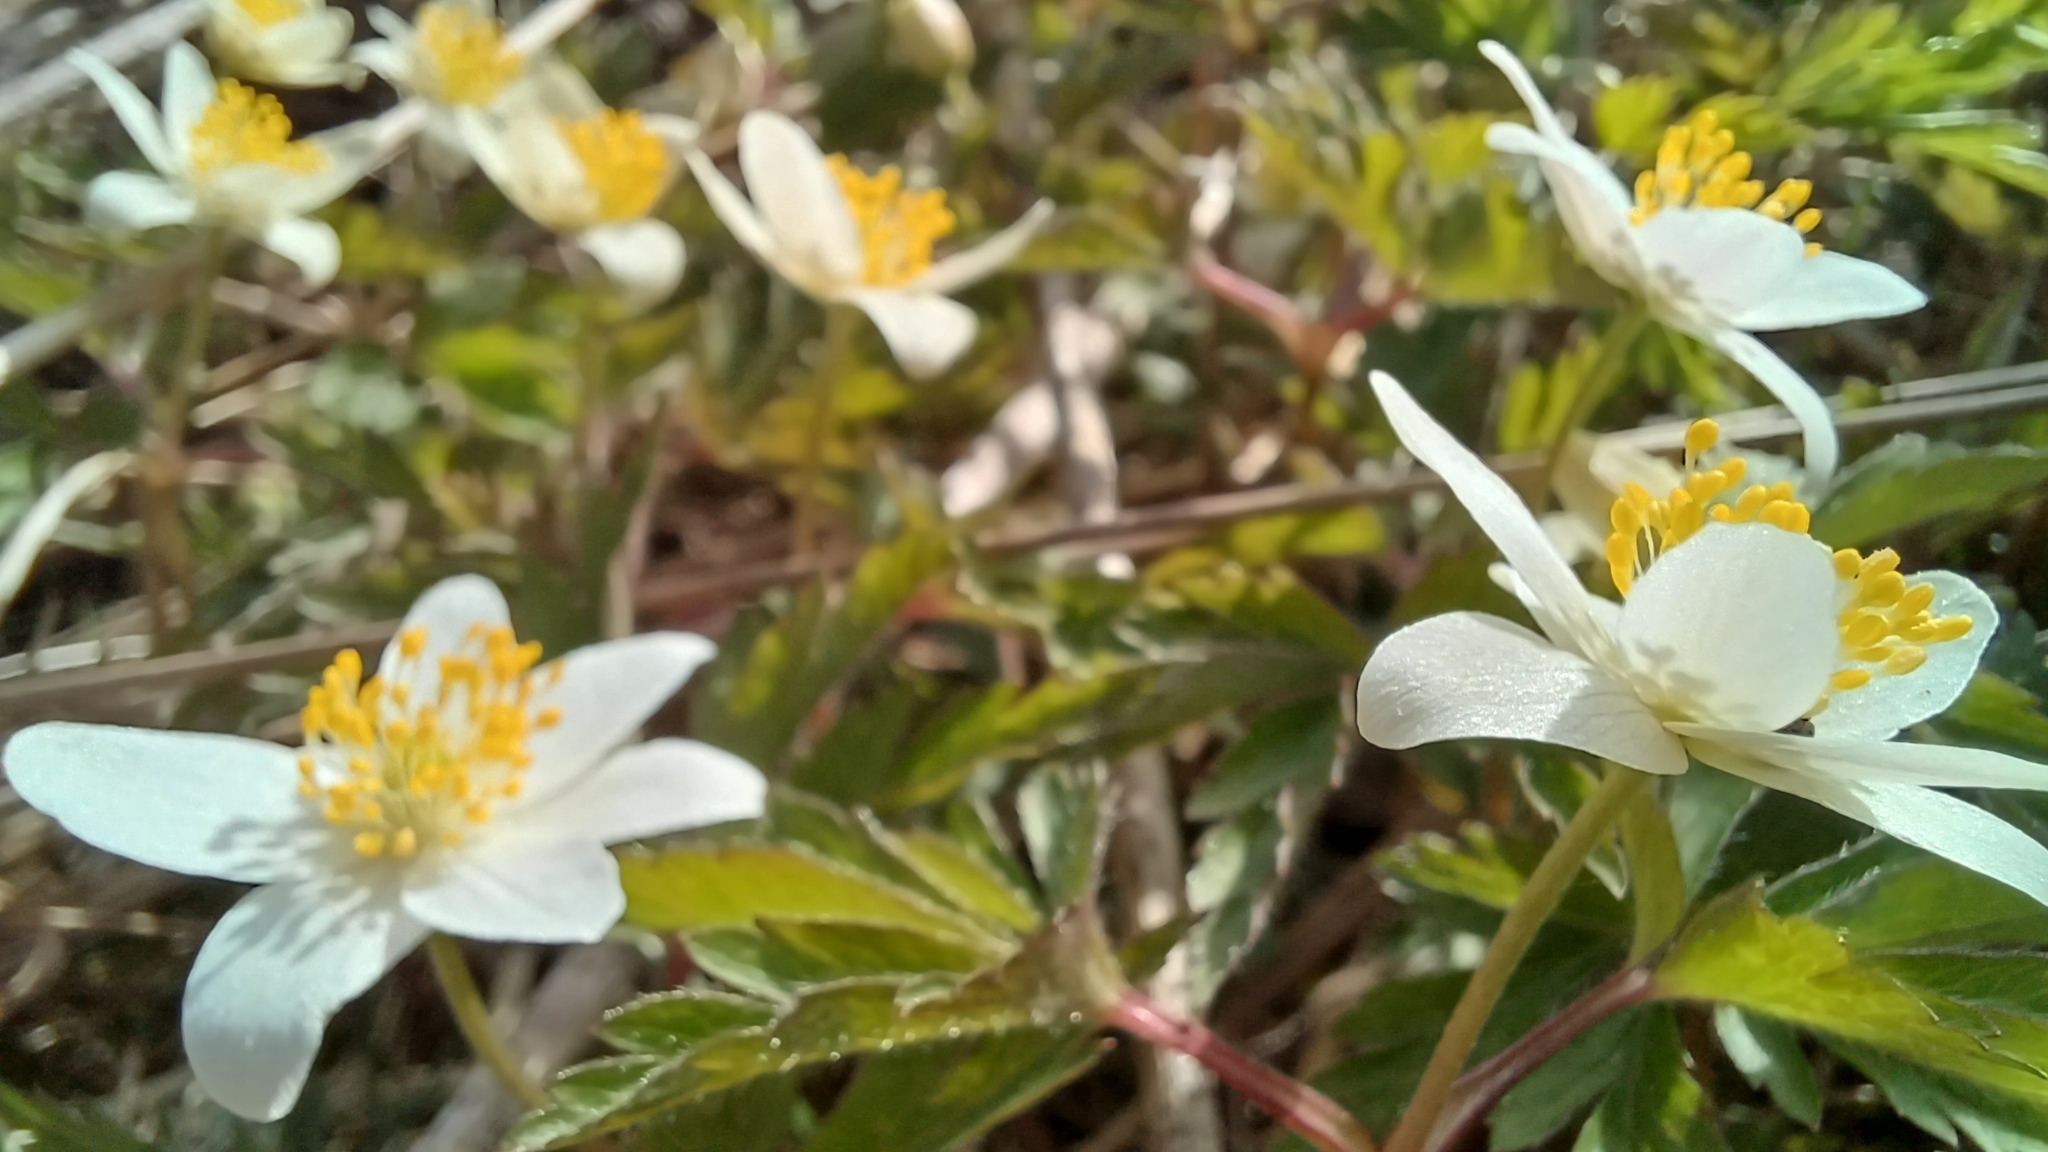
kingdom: Plantae
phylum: Tracheophyta
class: Magnoliopsida
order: Ranunculales
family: Ranunculaceae
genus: Anemone
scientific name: Anemone nemorosa
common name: Wood anemone
